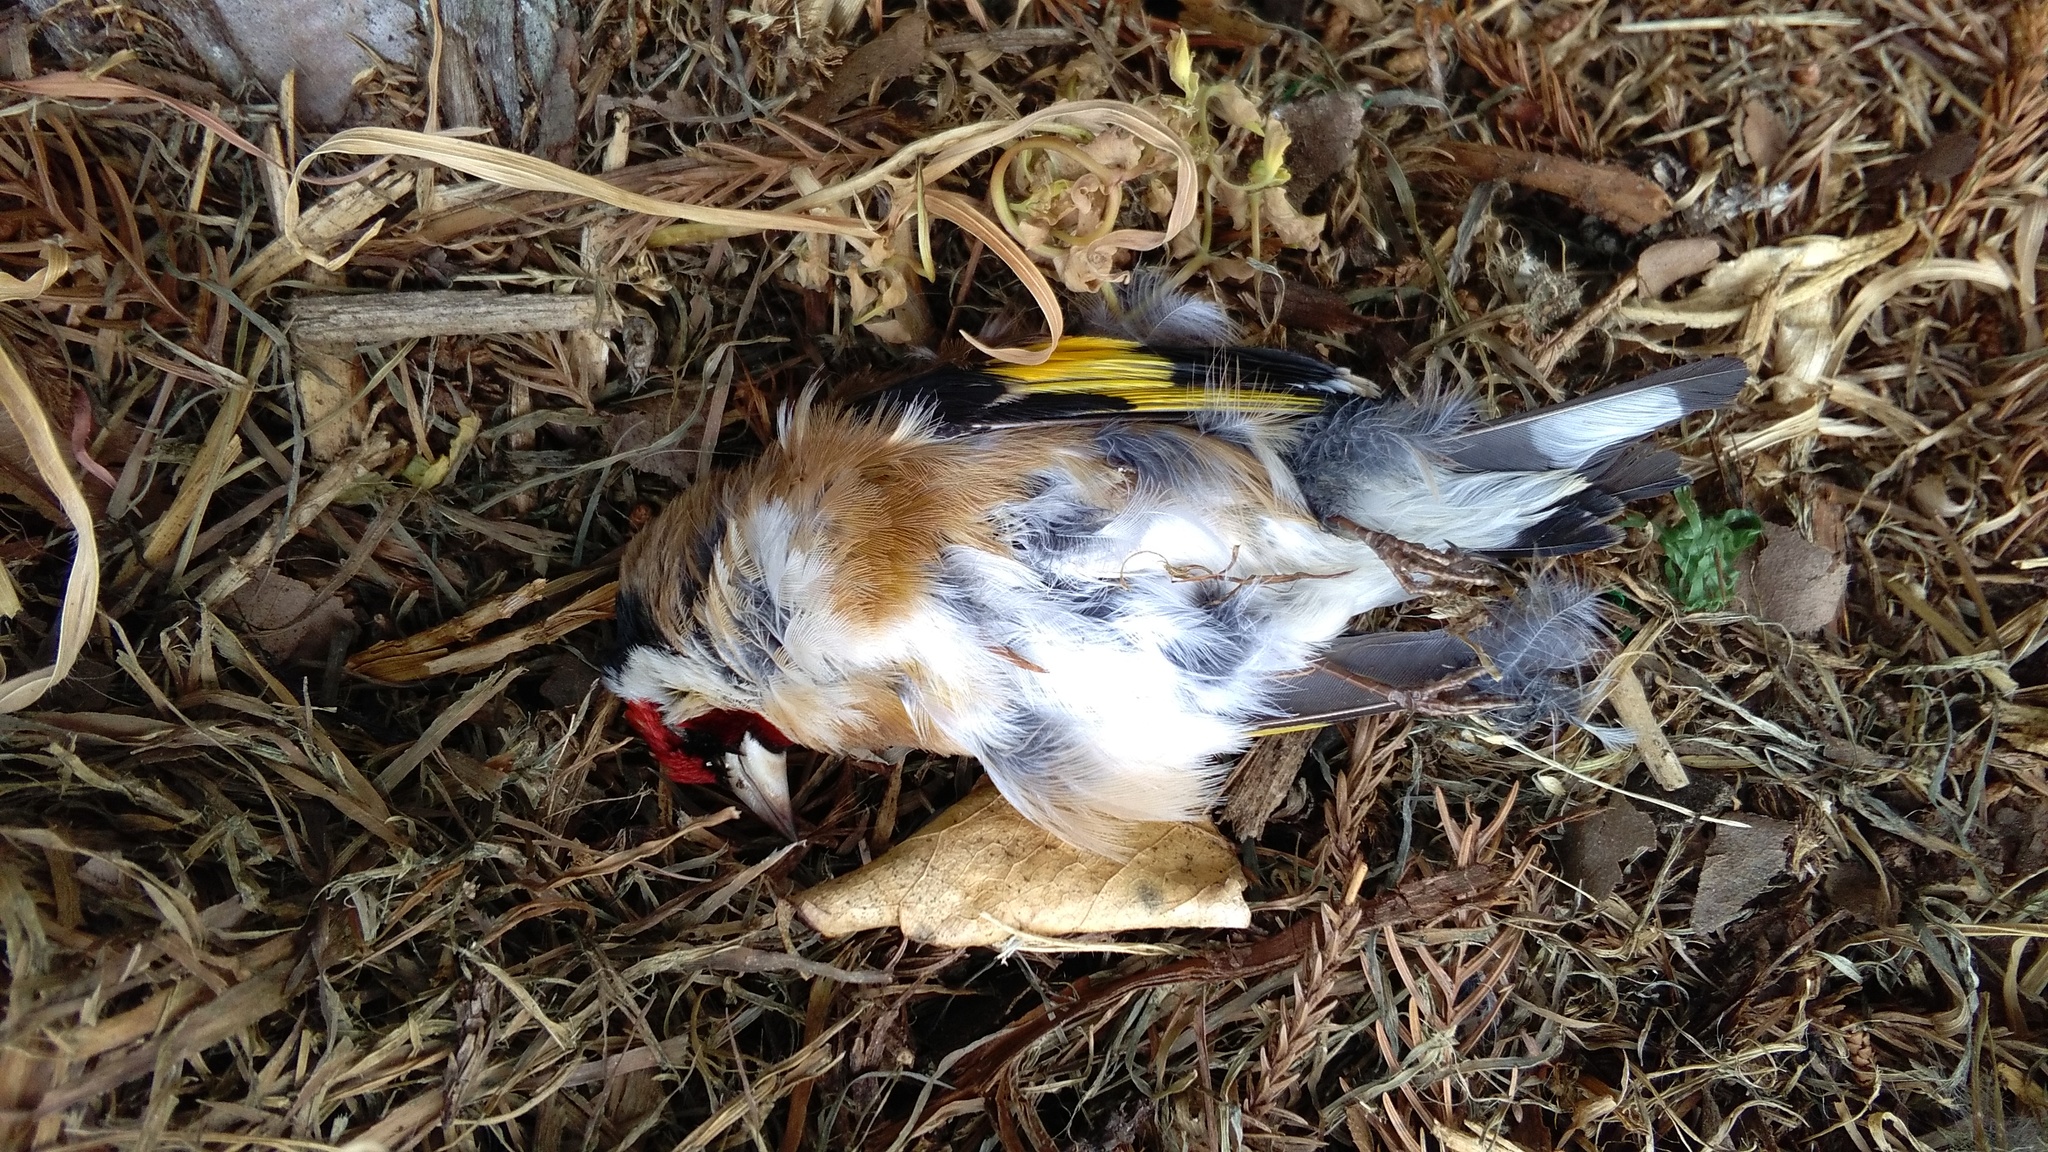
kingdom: Animalia
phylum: Chordata
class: Aves
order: Passeriformes
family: Fringillidae
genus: Carduelis
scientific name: Carduelis carduelis
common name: European goldfinch
